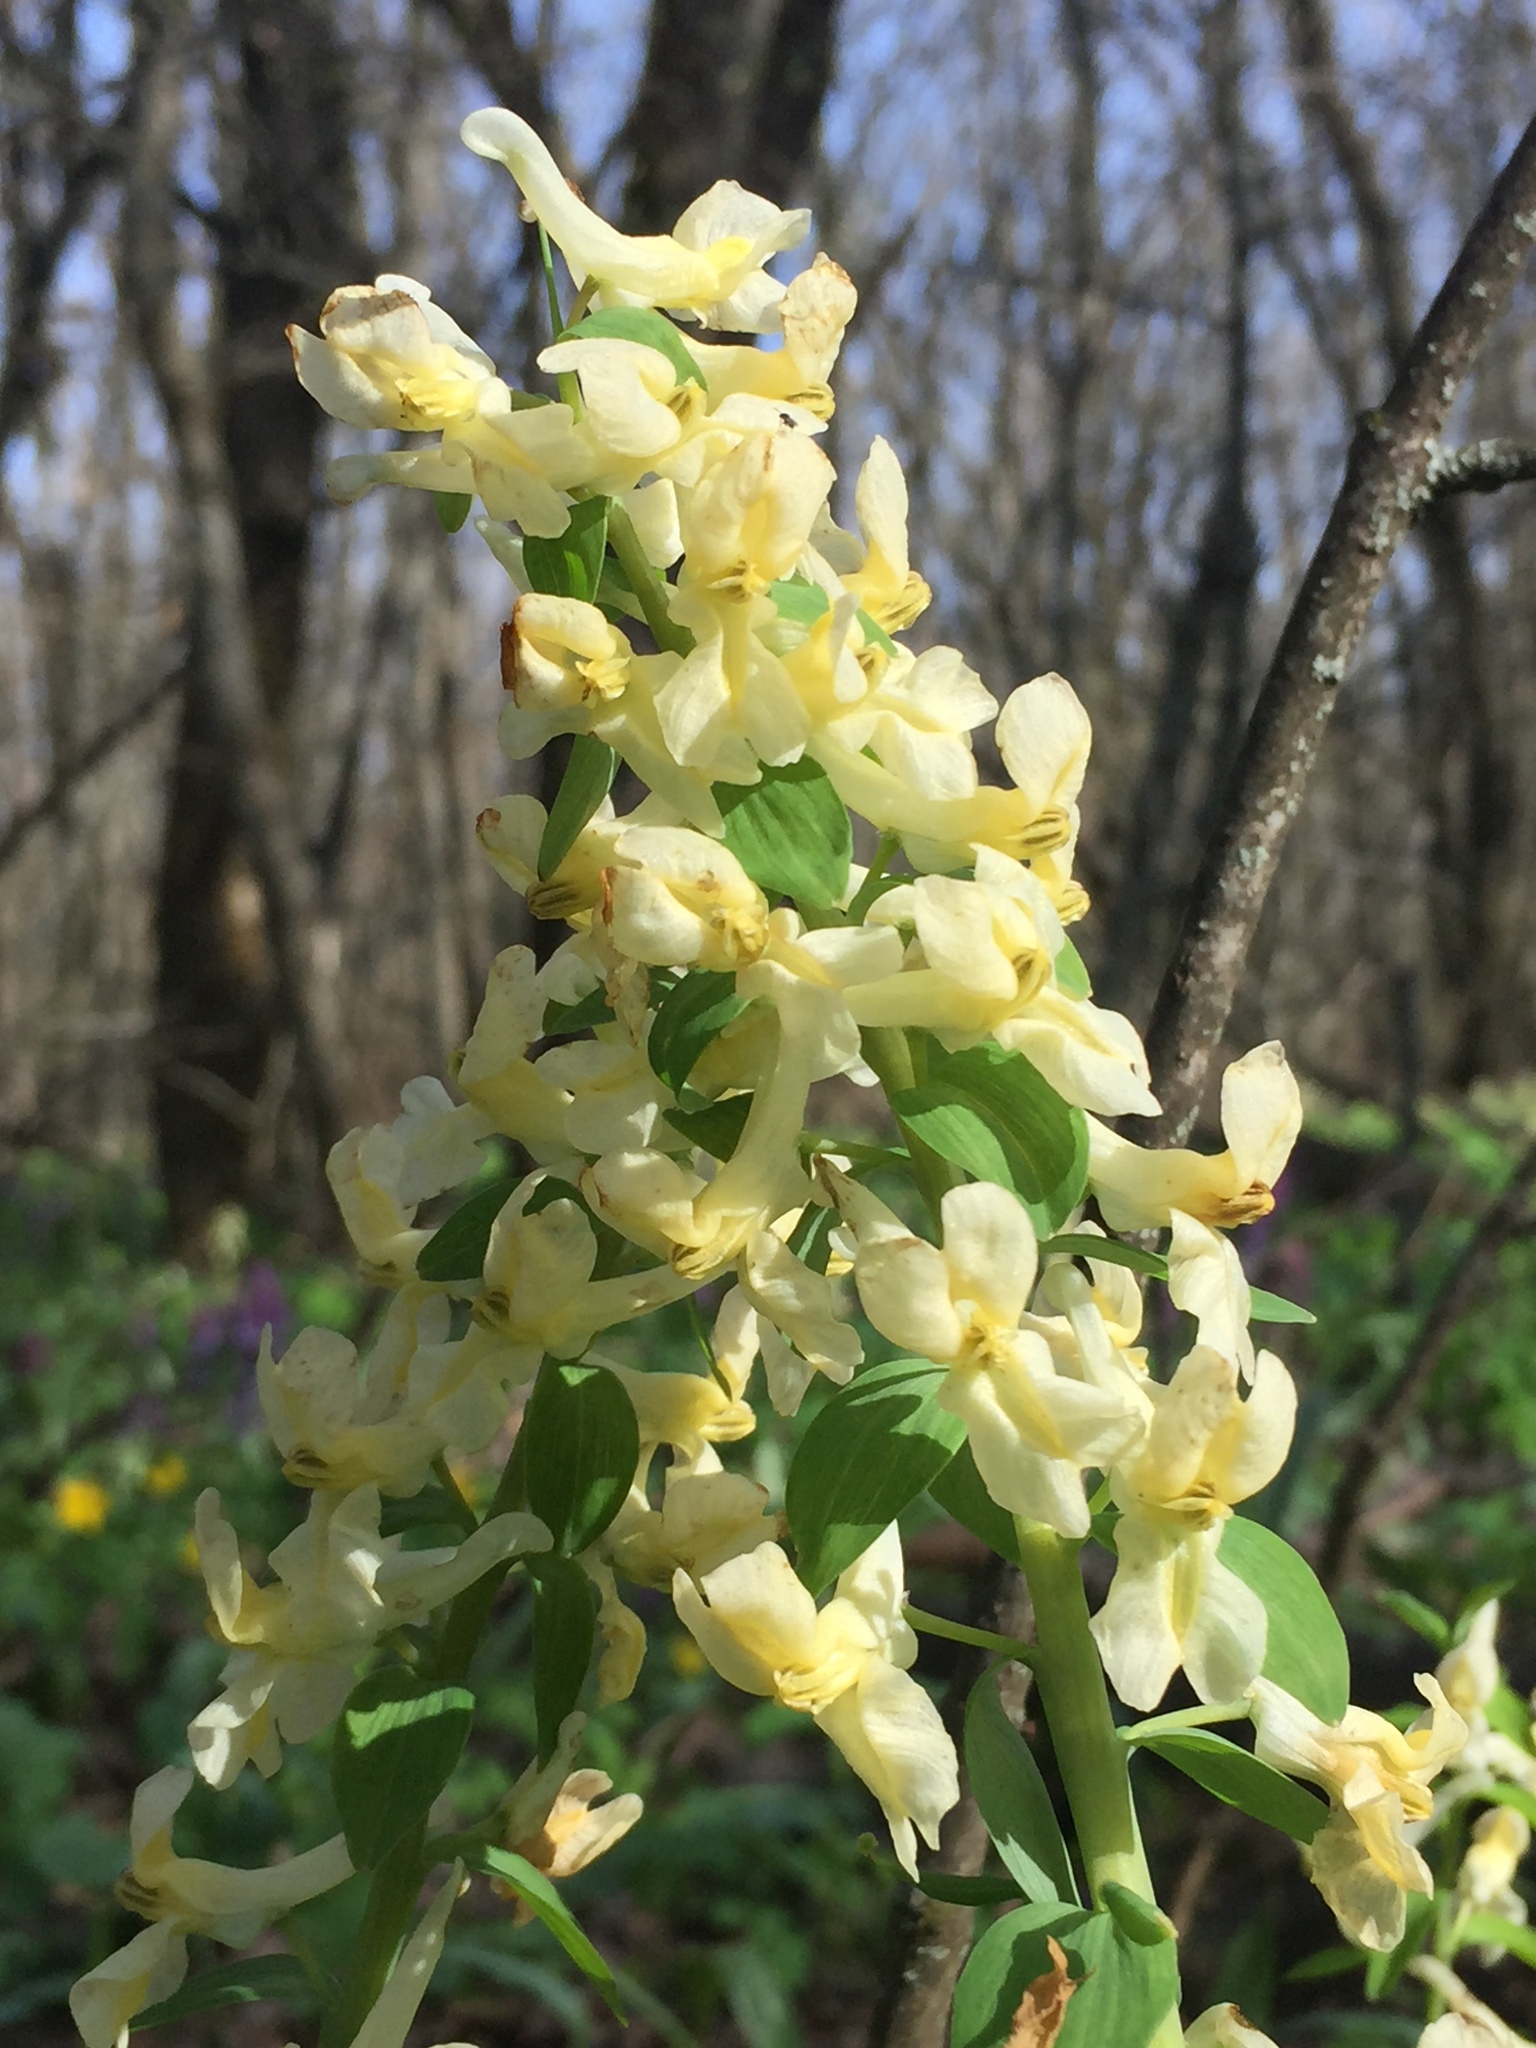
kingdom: Plantae
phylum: Tracheophyta
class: Magnoliopsida
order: Ranunculales
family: Papaveraceae
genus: Corydalis
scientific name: Corydalis cava
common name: Hollowroot
